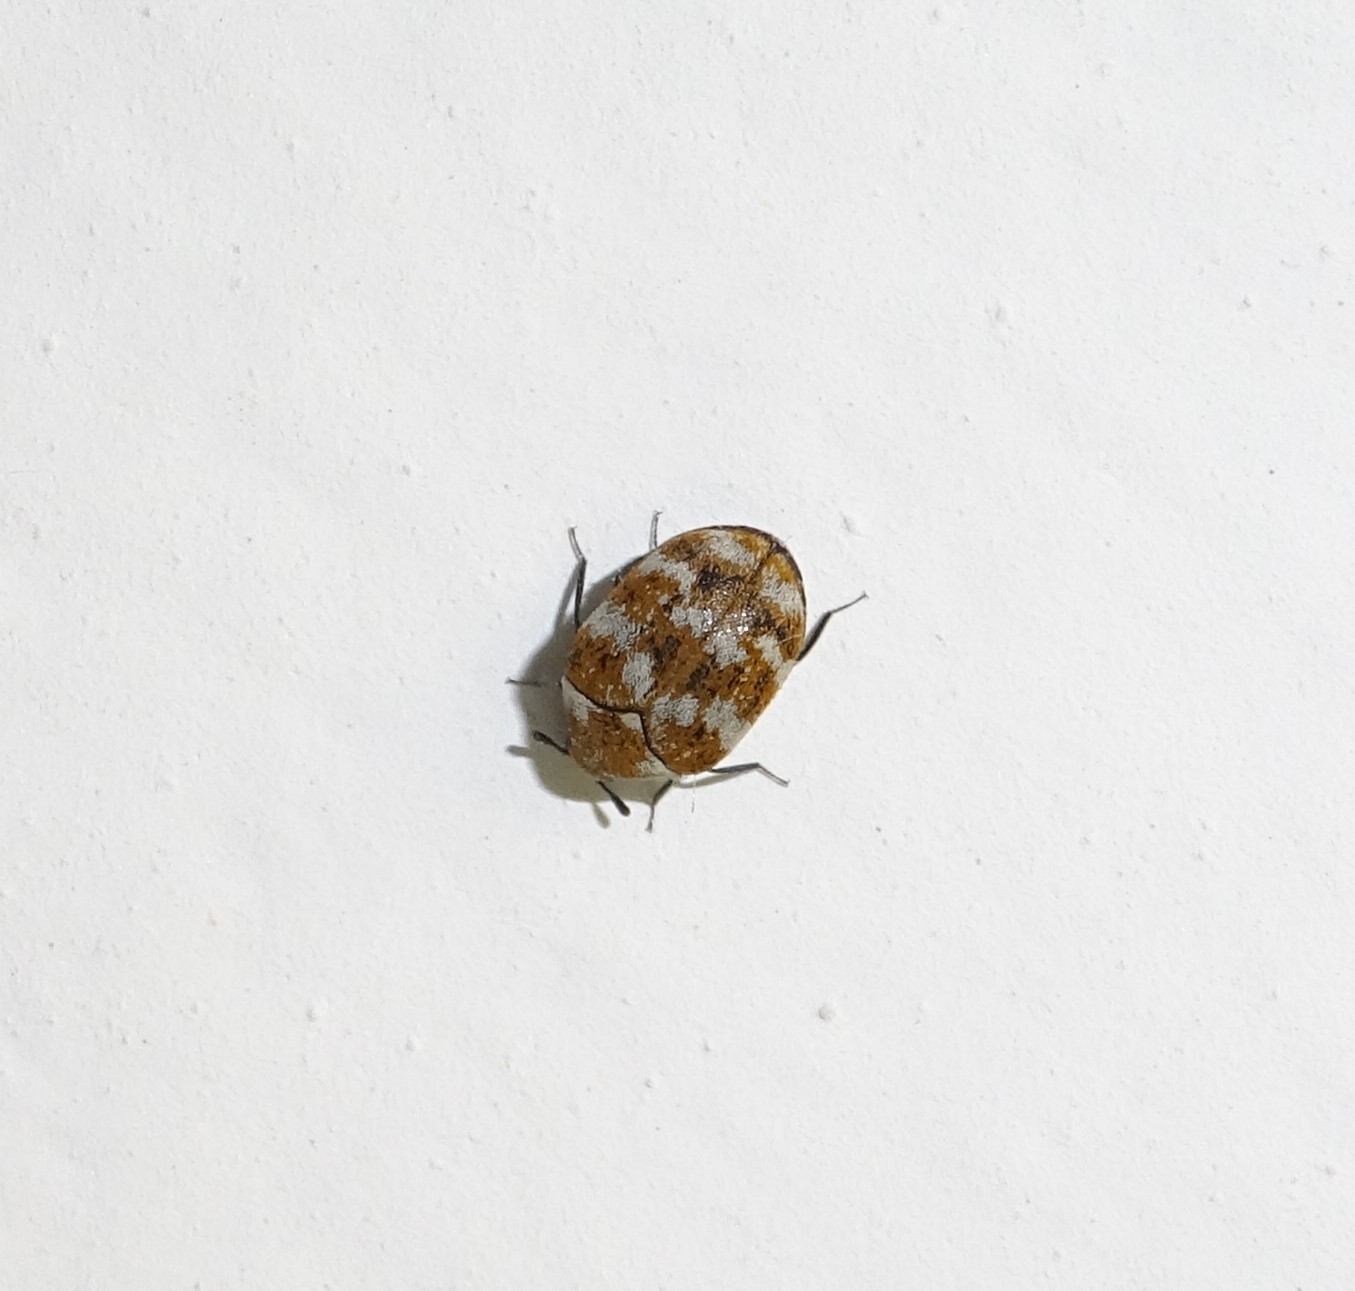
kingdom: Animalia
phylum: Arthropoda
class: Insecta
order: Coleoptera
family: Dermestidae
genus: Anthrenus
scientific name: Anthrenus verbasci
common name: Varied carpet beetle
